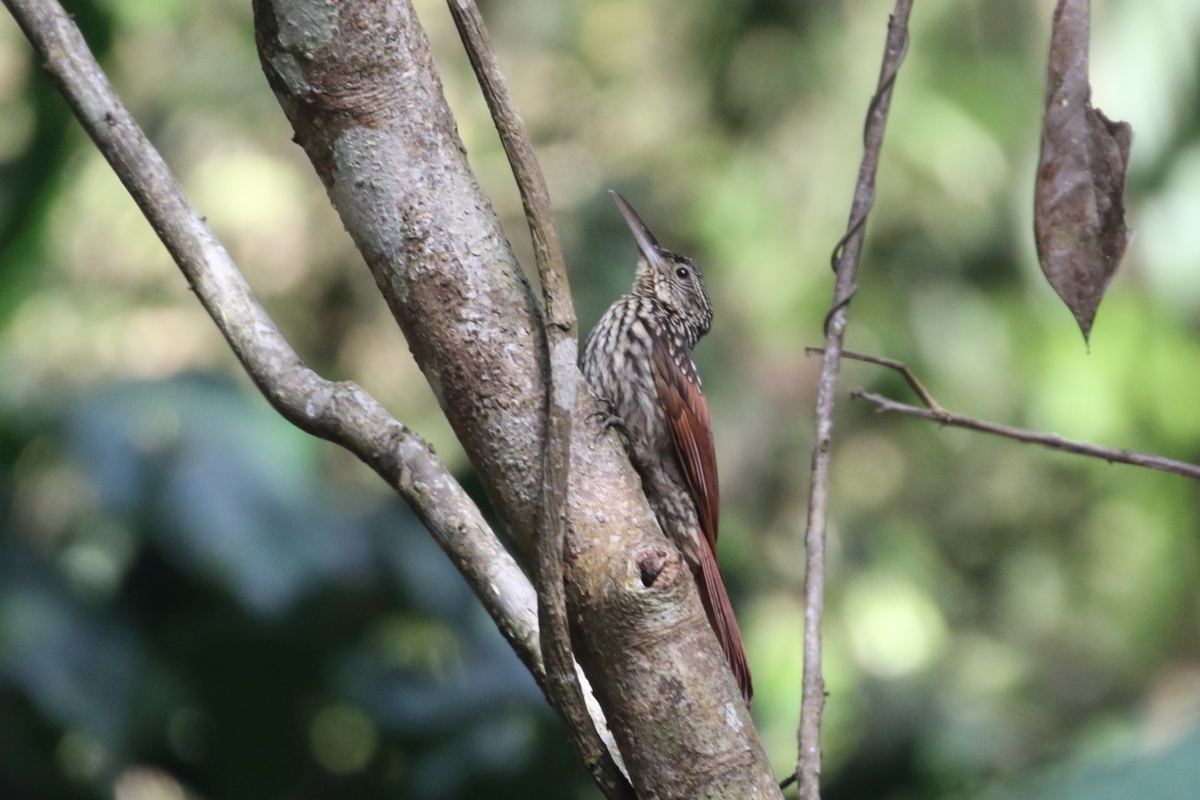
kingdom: Animalia
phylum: Chordata
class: Aves
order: Passeriformes
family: Furnariidae
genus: Xiphorhynchus
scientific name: Xiphorhynchus lachrymosus
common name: Black-striped woodcreeper
